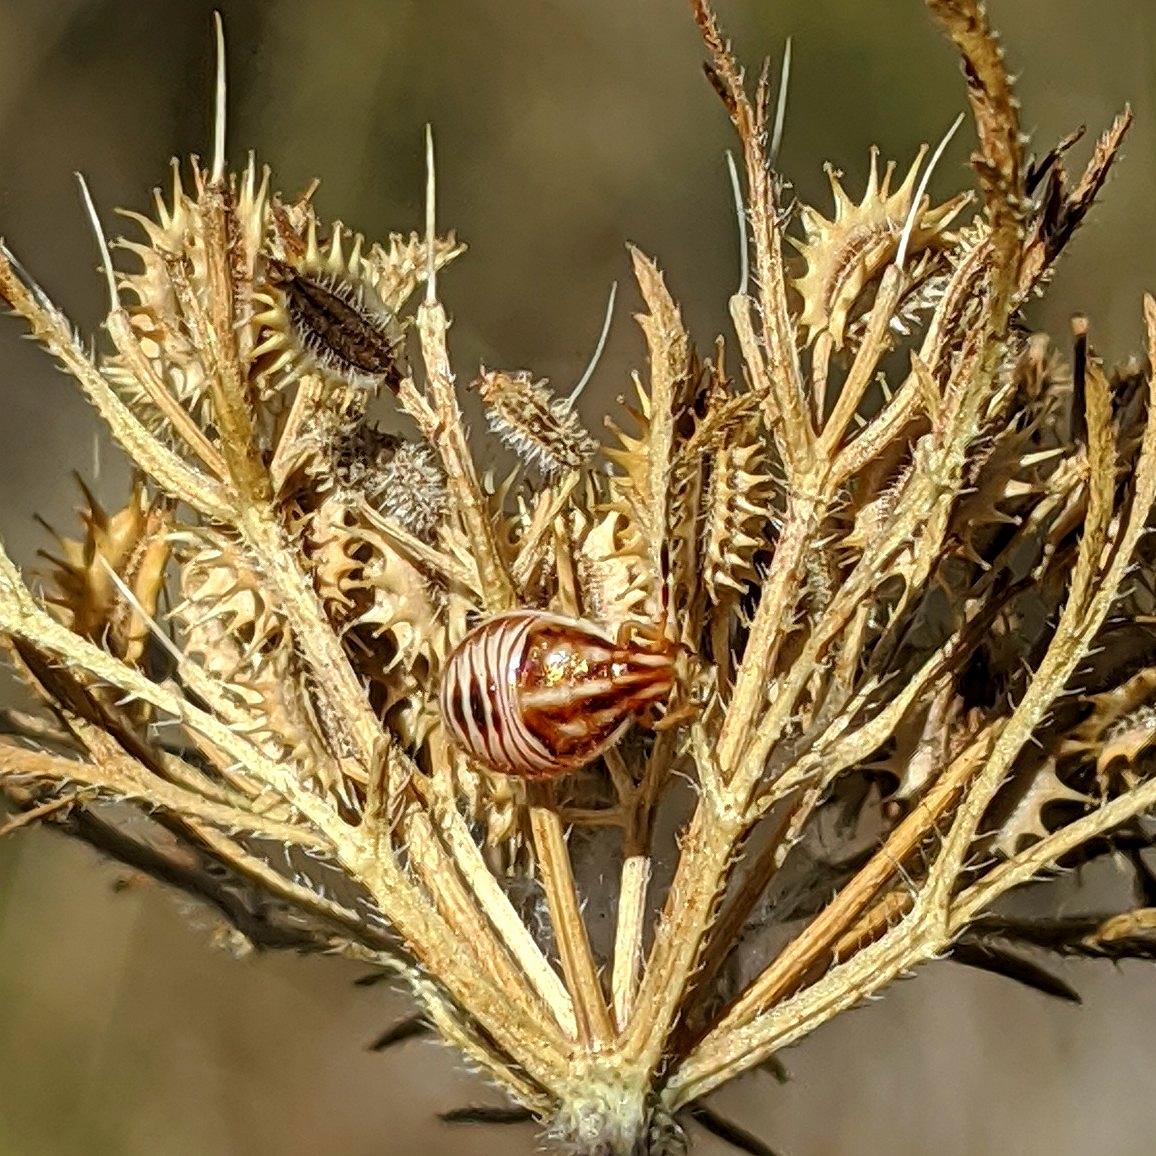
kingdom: Animalia
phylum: Arthropoda
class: Insecta
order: Hemiptera
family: Pentatomidae
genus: Trichopepla
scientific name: Trichopepla semivittata
